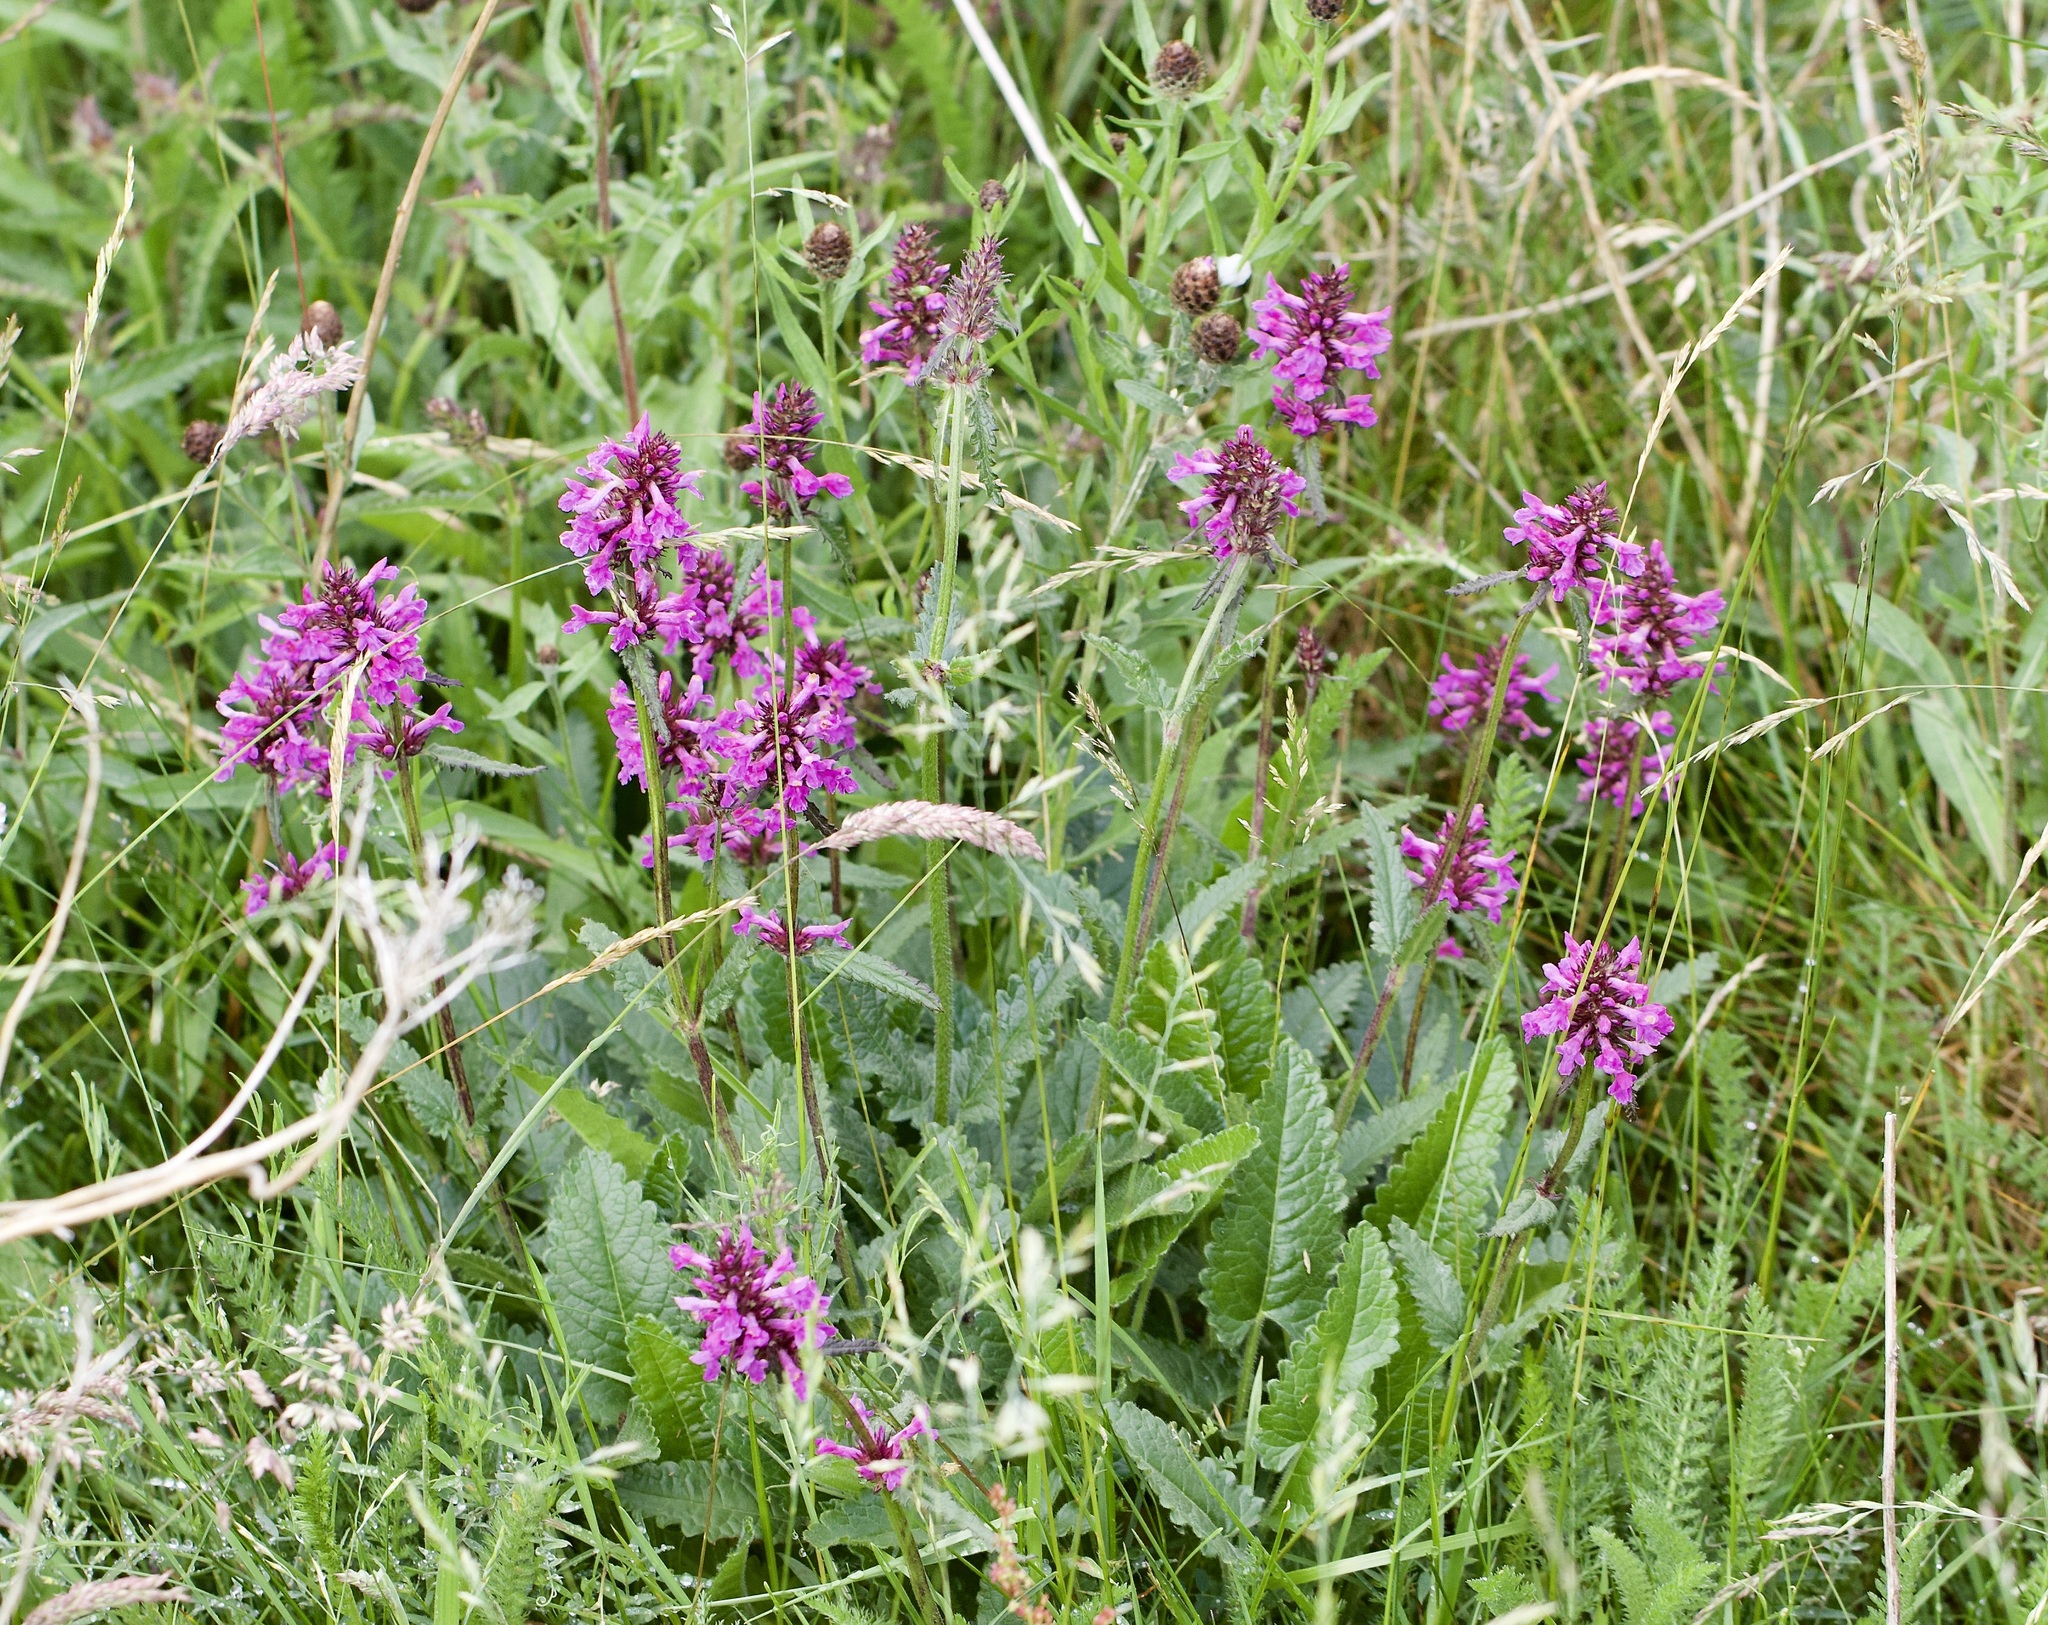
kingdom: Plantae
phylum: Tracheophyta
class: Magnoliopsida
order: Lamiales
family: Lamiaceae
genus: Betonica
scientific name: Betonica officinalis
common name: Bishop's-wort
